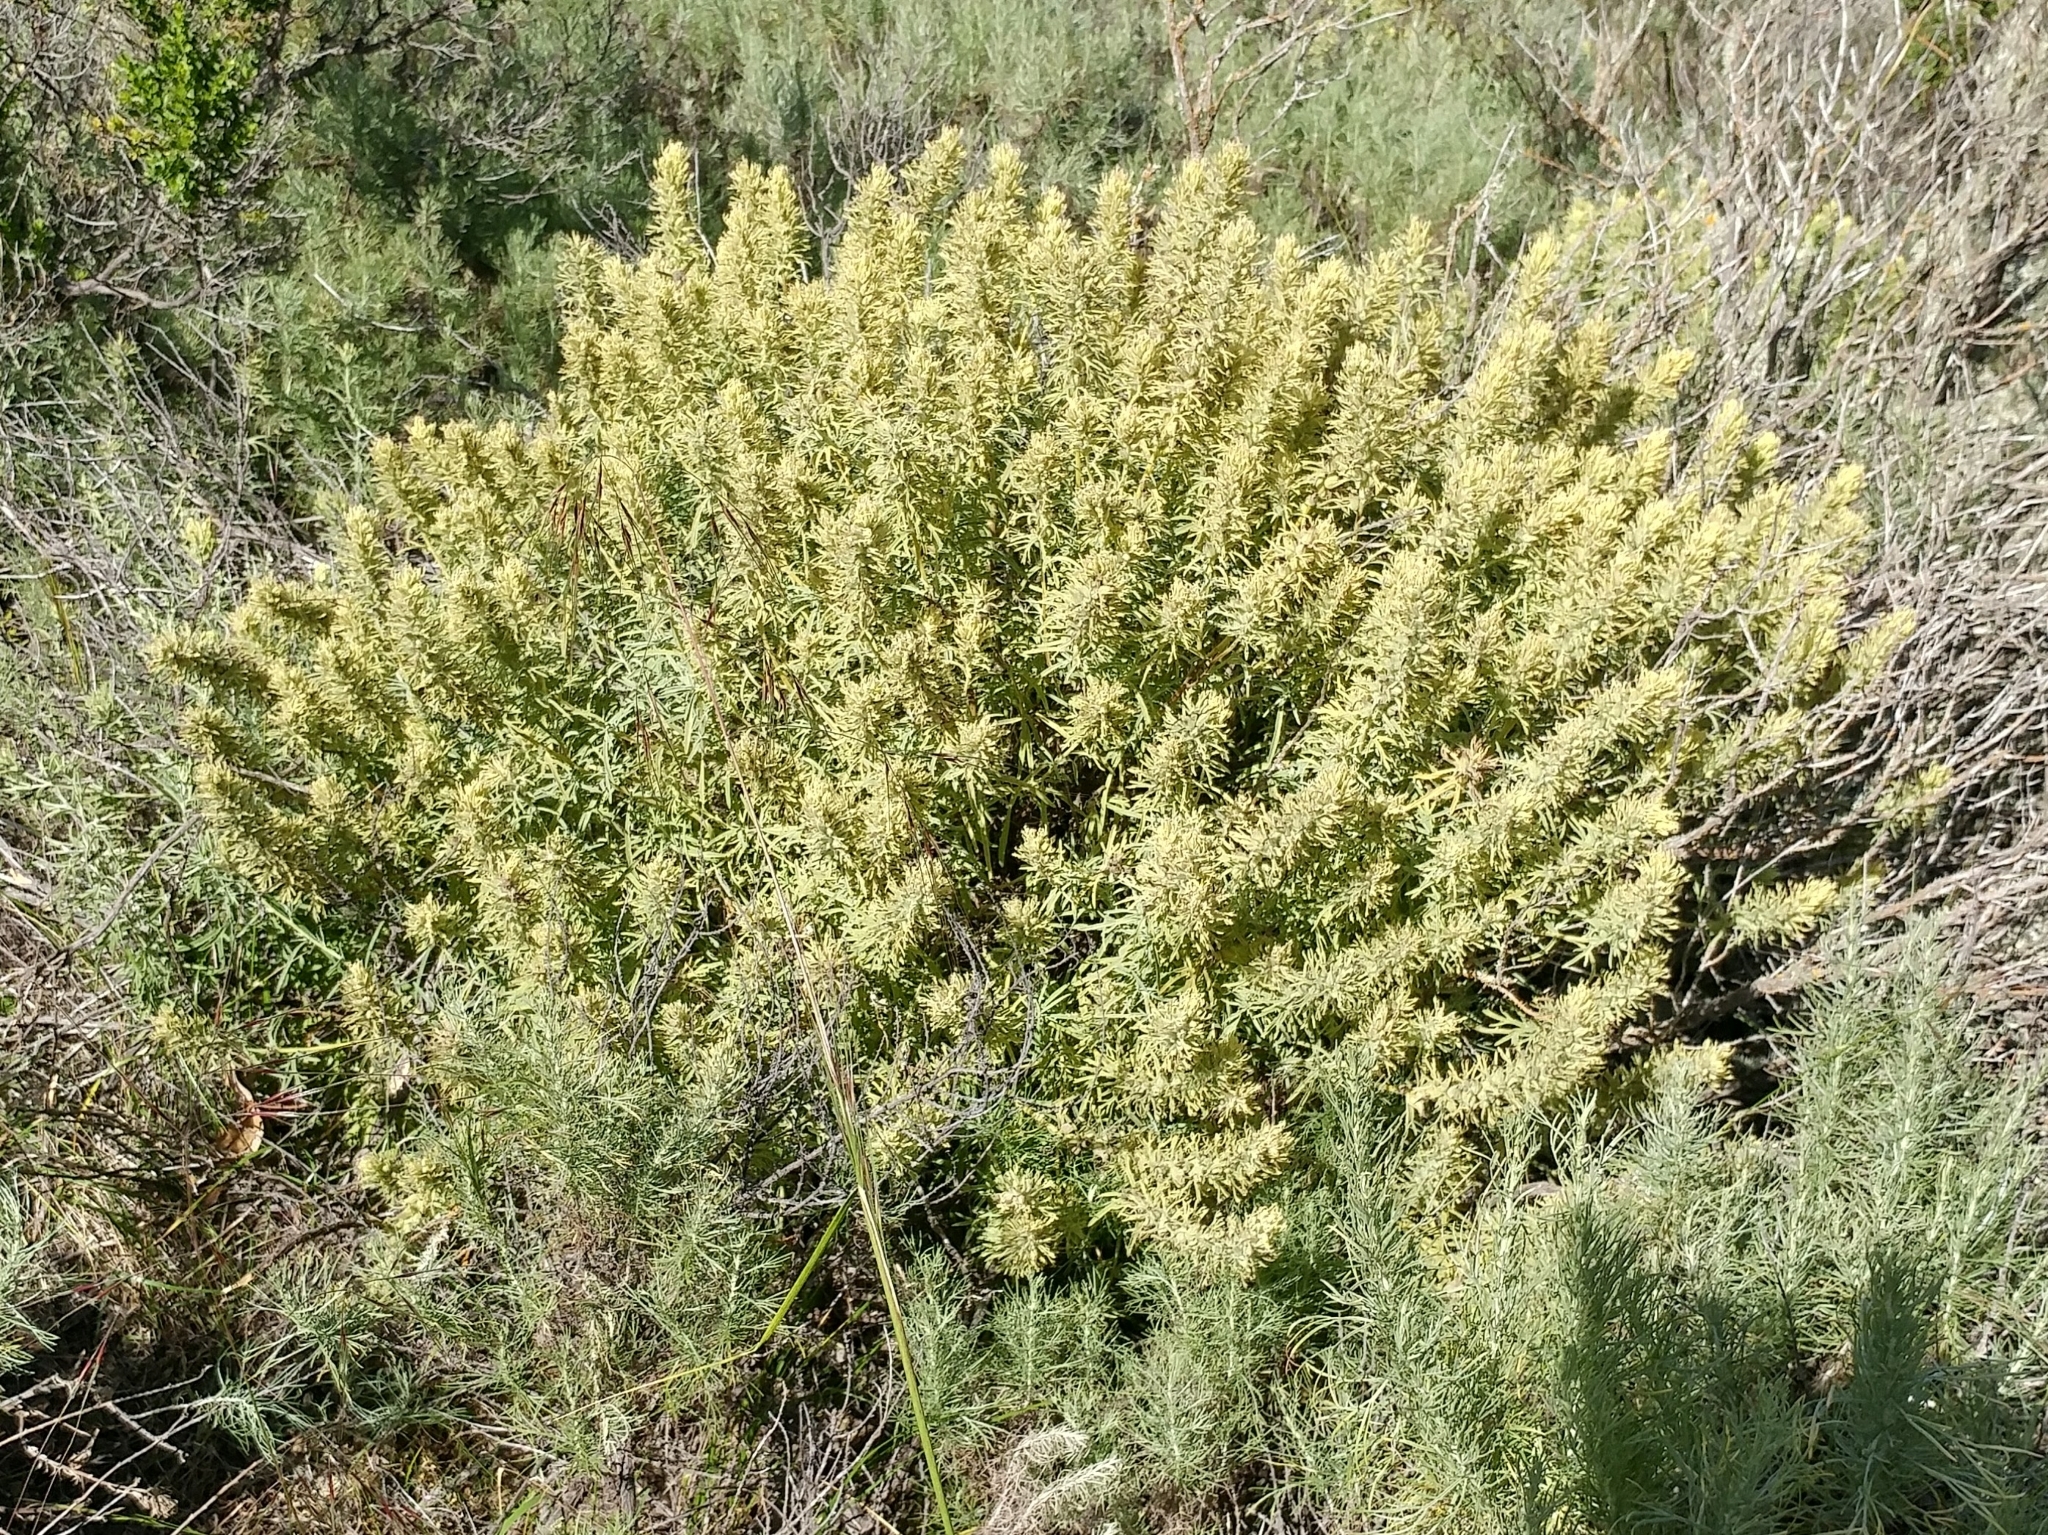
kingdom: Plantae
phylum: Tracheophyta
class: Magnoliopsida
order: Lamiales
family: Orobanchaceae
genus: Castilleja
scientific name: Castilleja grisea
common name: San clemente island indian paintbrush
